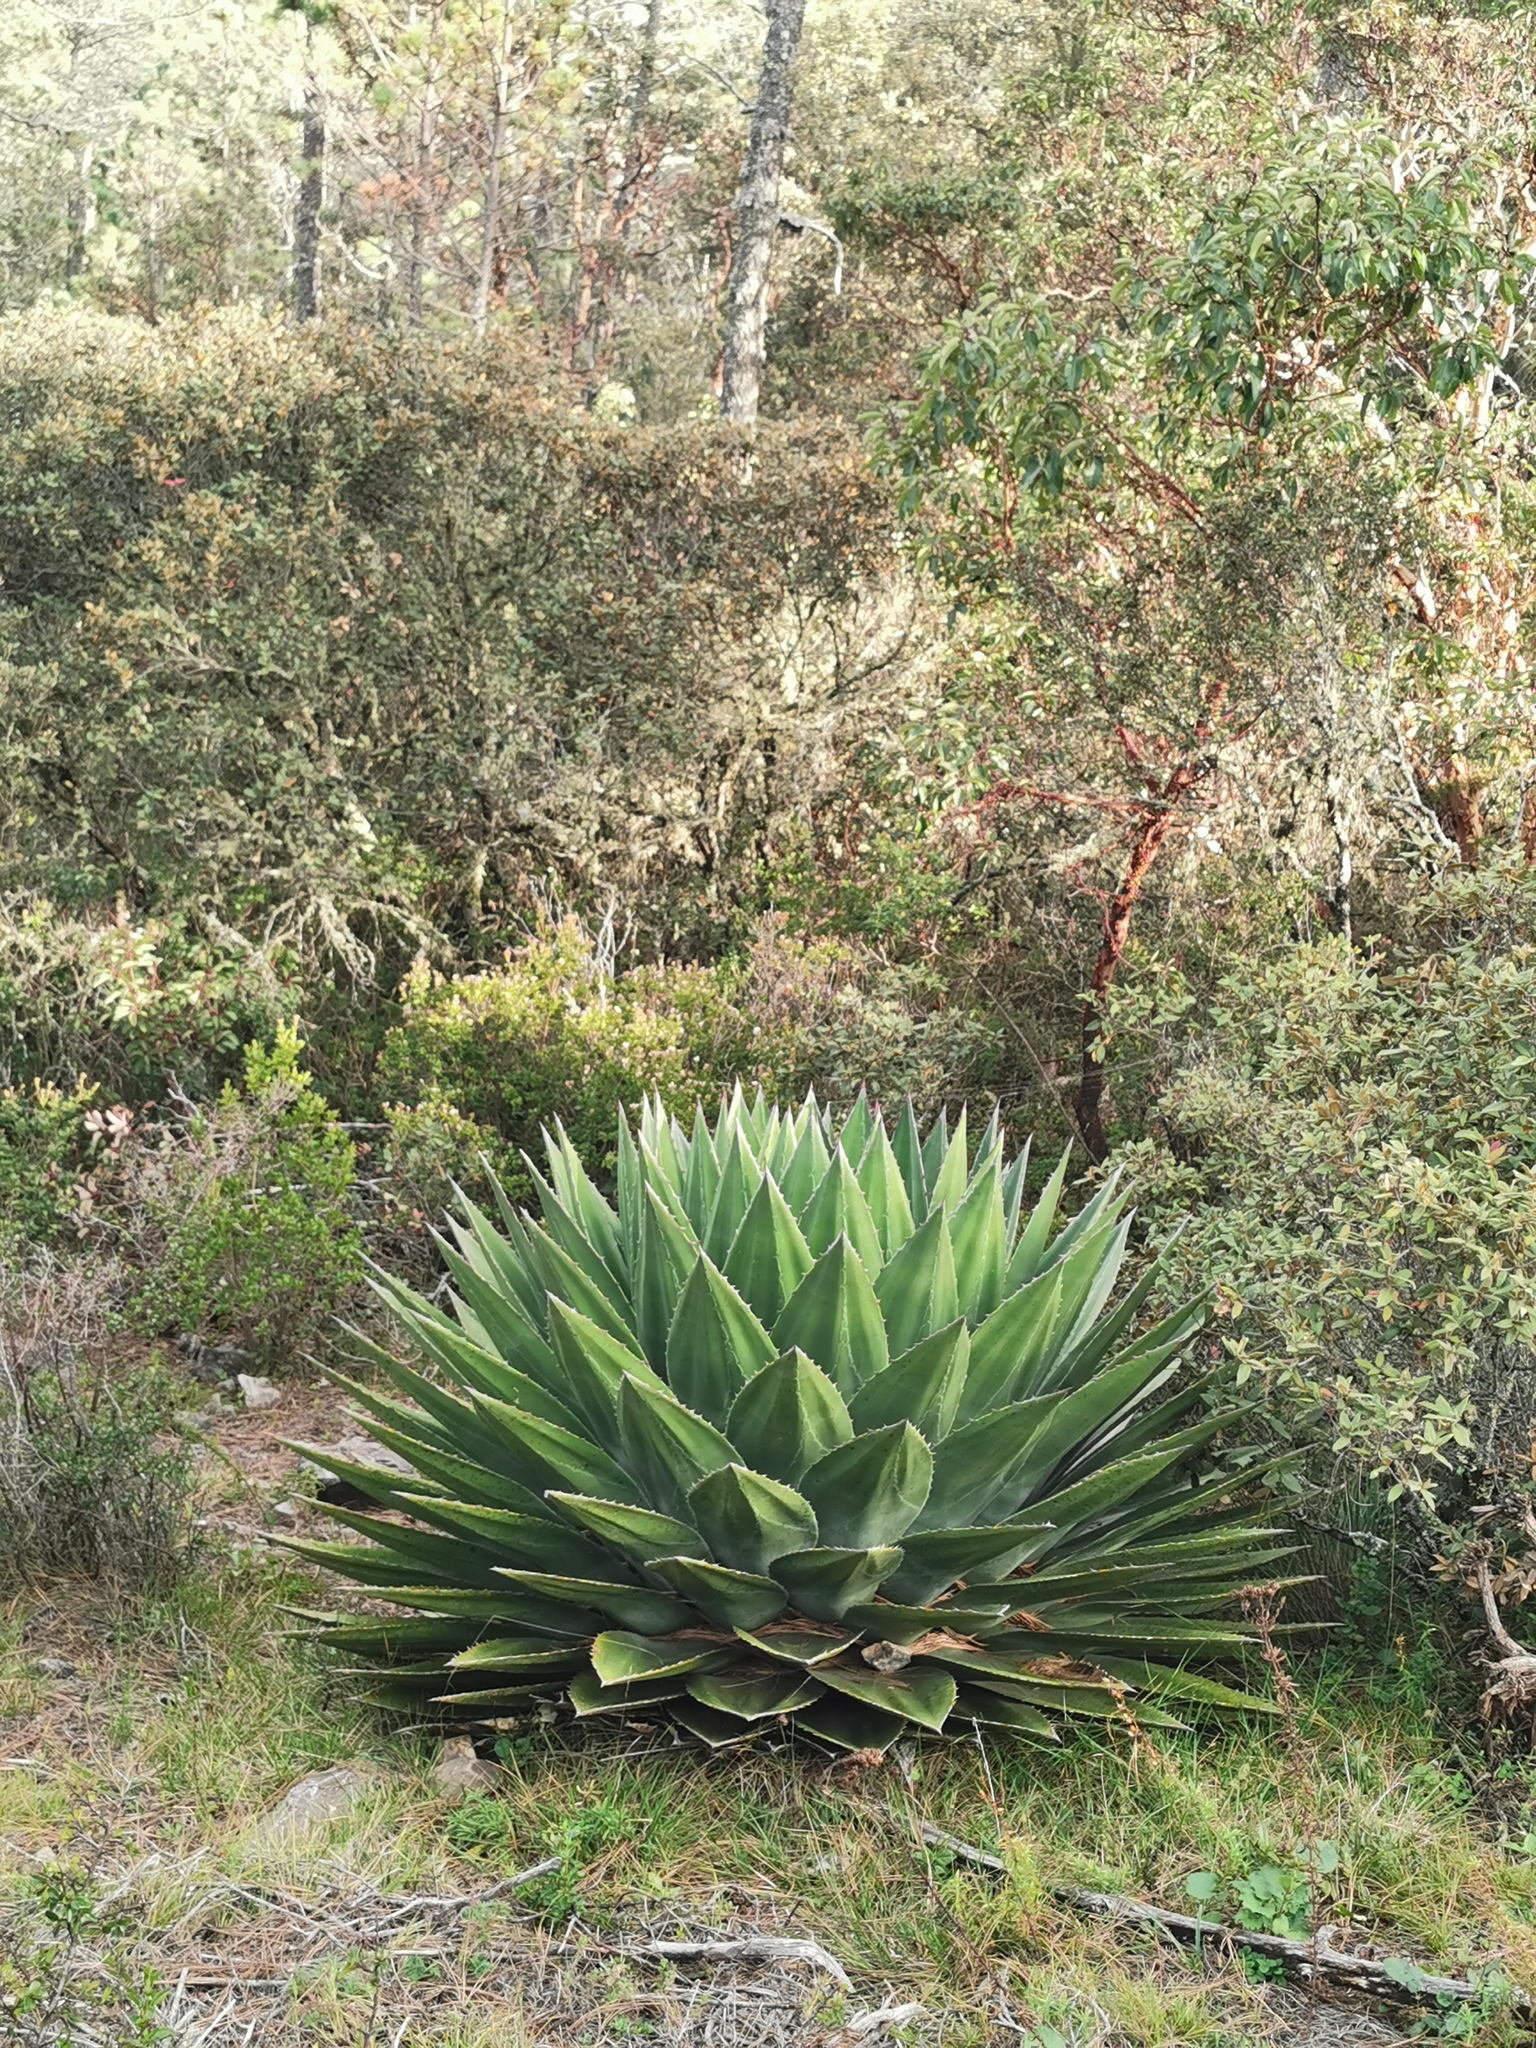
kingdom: Plantae
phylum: Tracheophyta
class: Liliopsida
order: Asparagales
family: Asparagaceae
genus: Agave
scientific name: Agave montana
